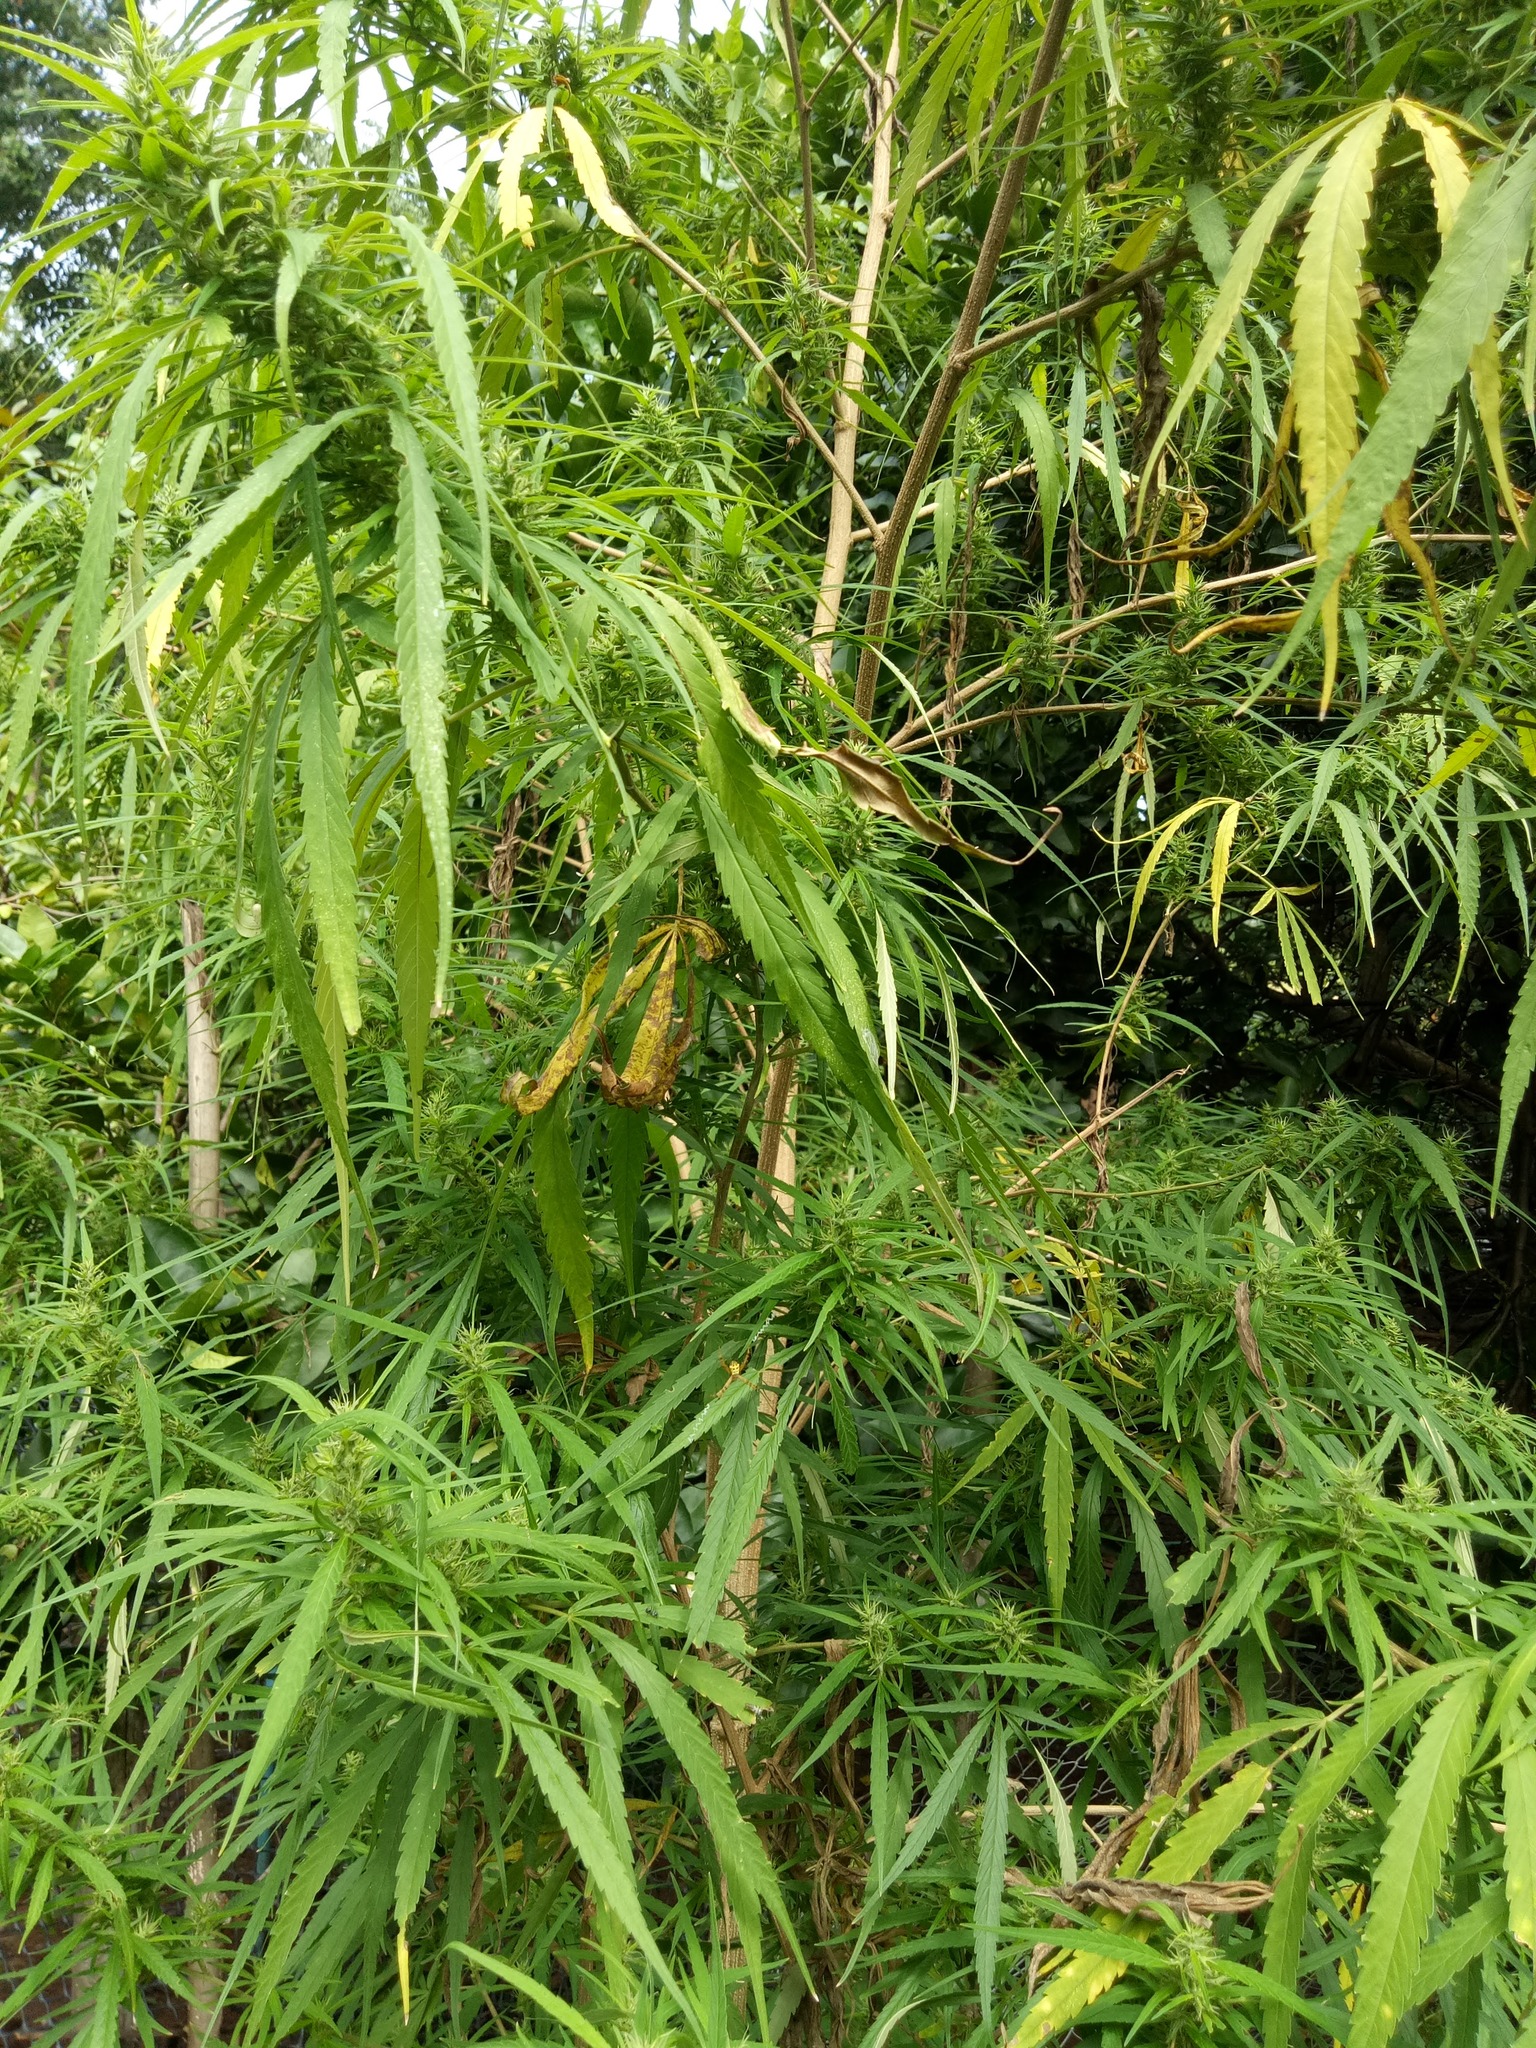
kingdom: Plantae
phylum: Tracheophyta
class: Magnoliopsida
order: Rosales
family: Cannabaceae
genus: Cannabis
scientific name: Cannabis sativa
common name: Hemp
